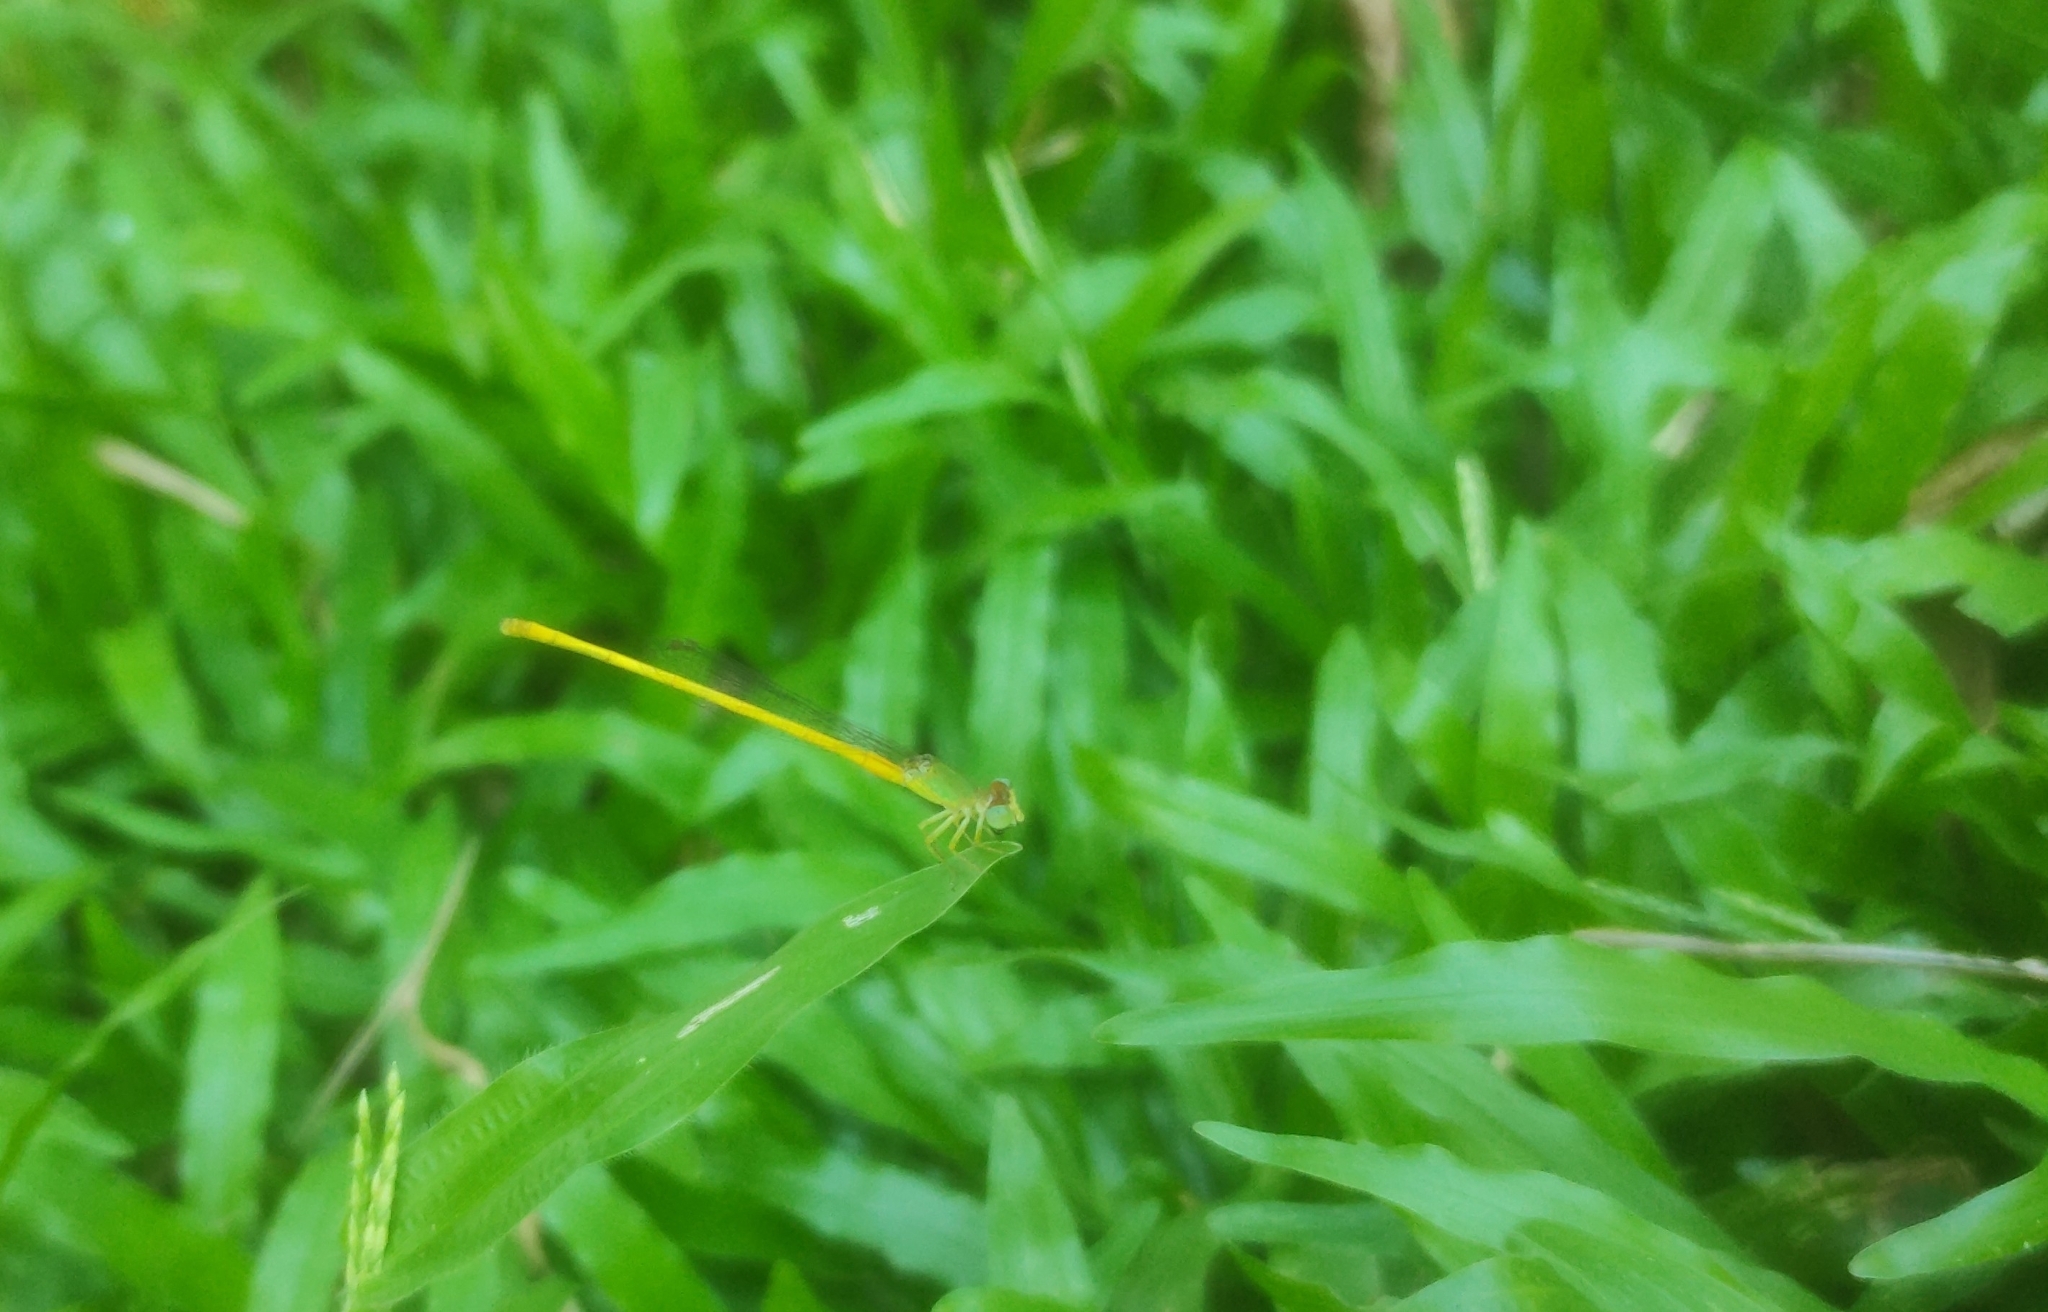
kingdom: Animalia
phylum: Arthropoda
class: Insecta
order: Odonata
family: Coenagrionidae
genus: Ceriagrion
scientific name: Ceriagrion coromandelianum
